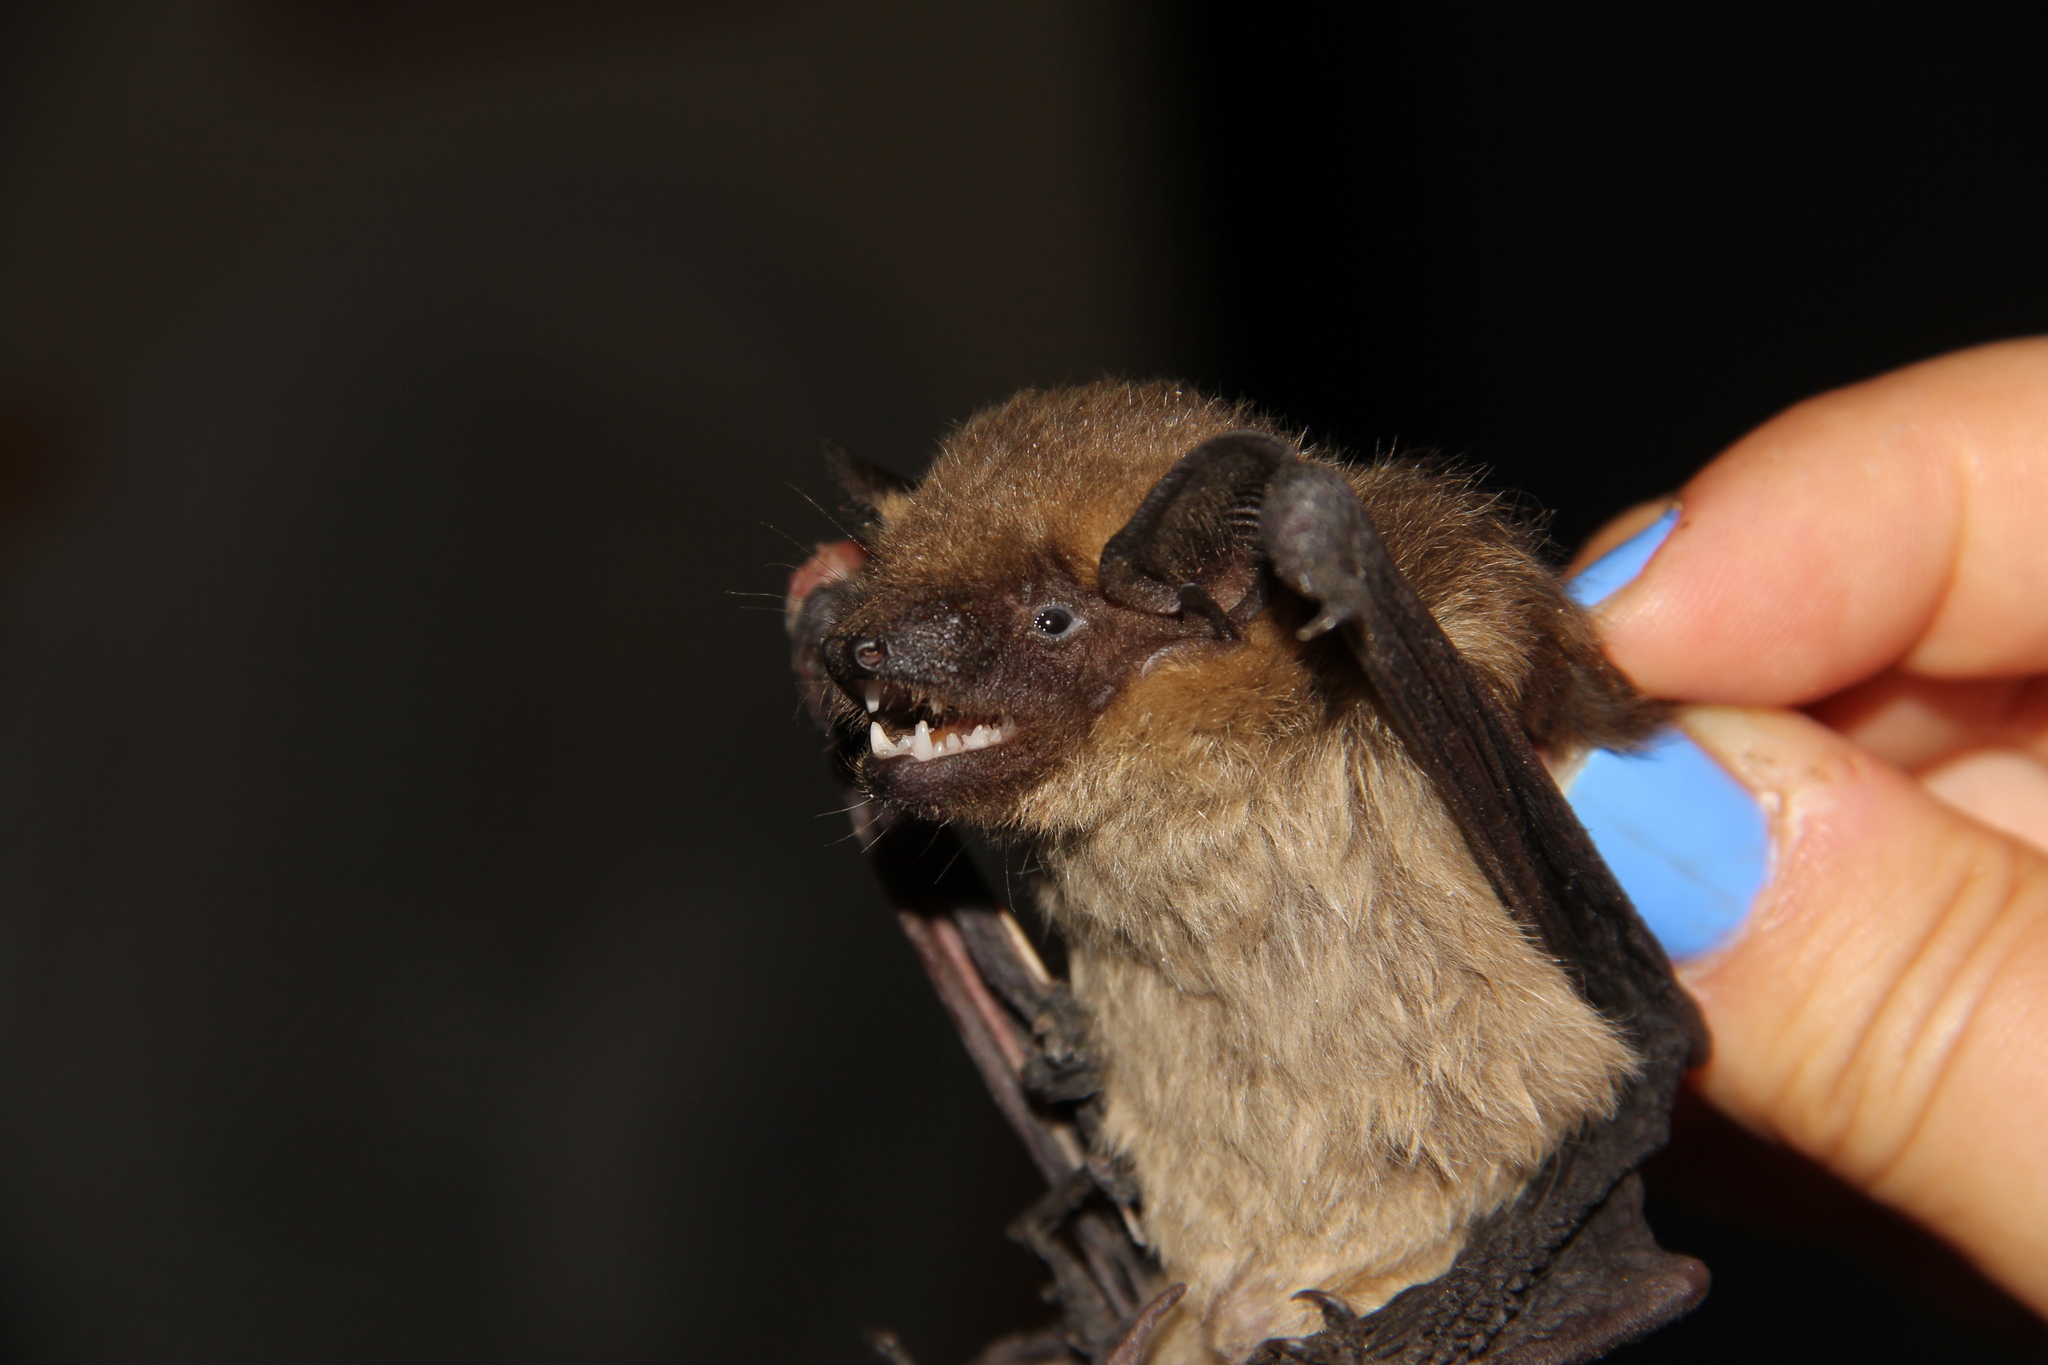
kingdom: Animalia
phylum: Chordata
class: Mammalia
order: Chiroptera
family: Vespertilionidae
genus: Eptesicus
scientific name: Eptesicus serotinus
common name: Serotine
